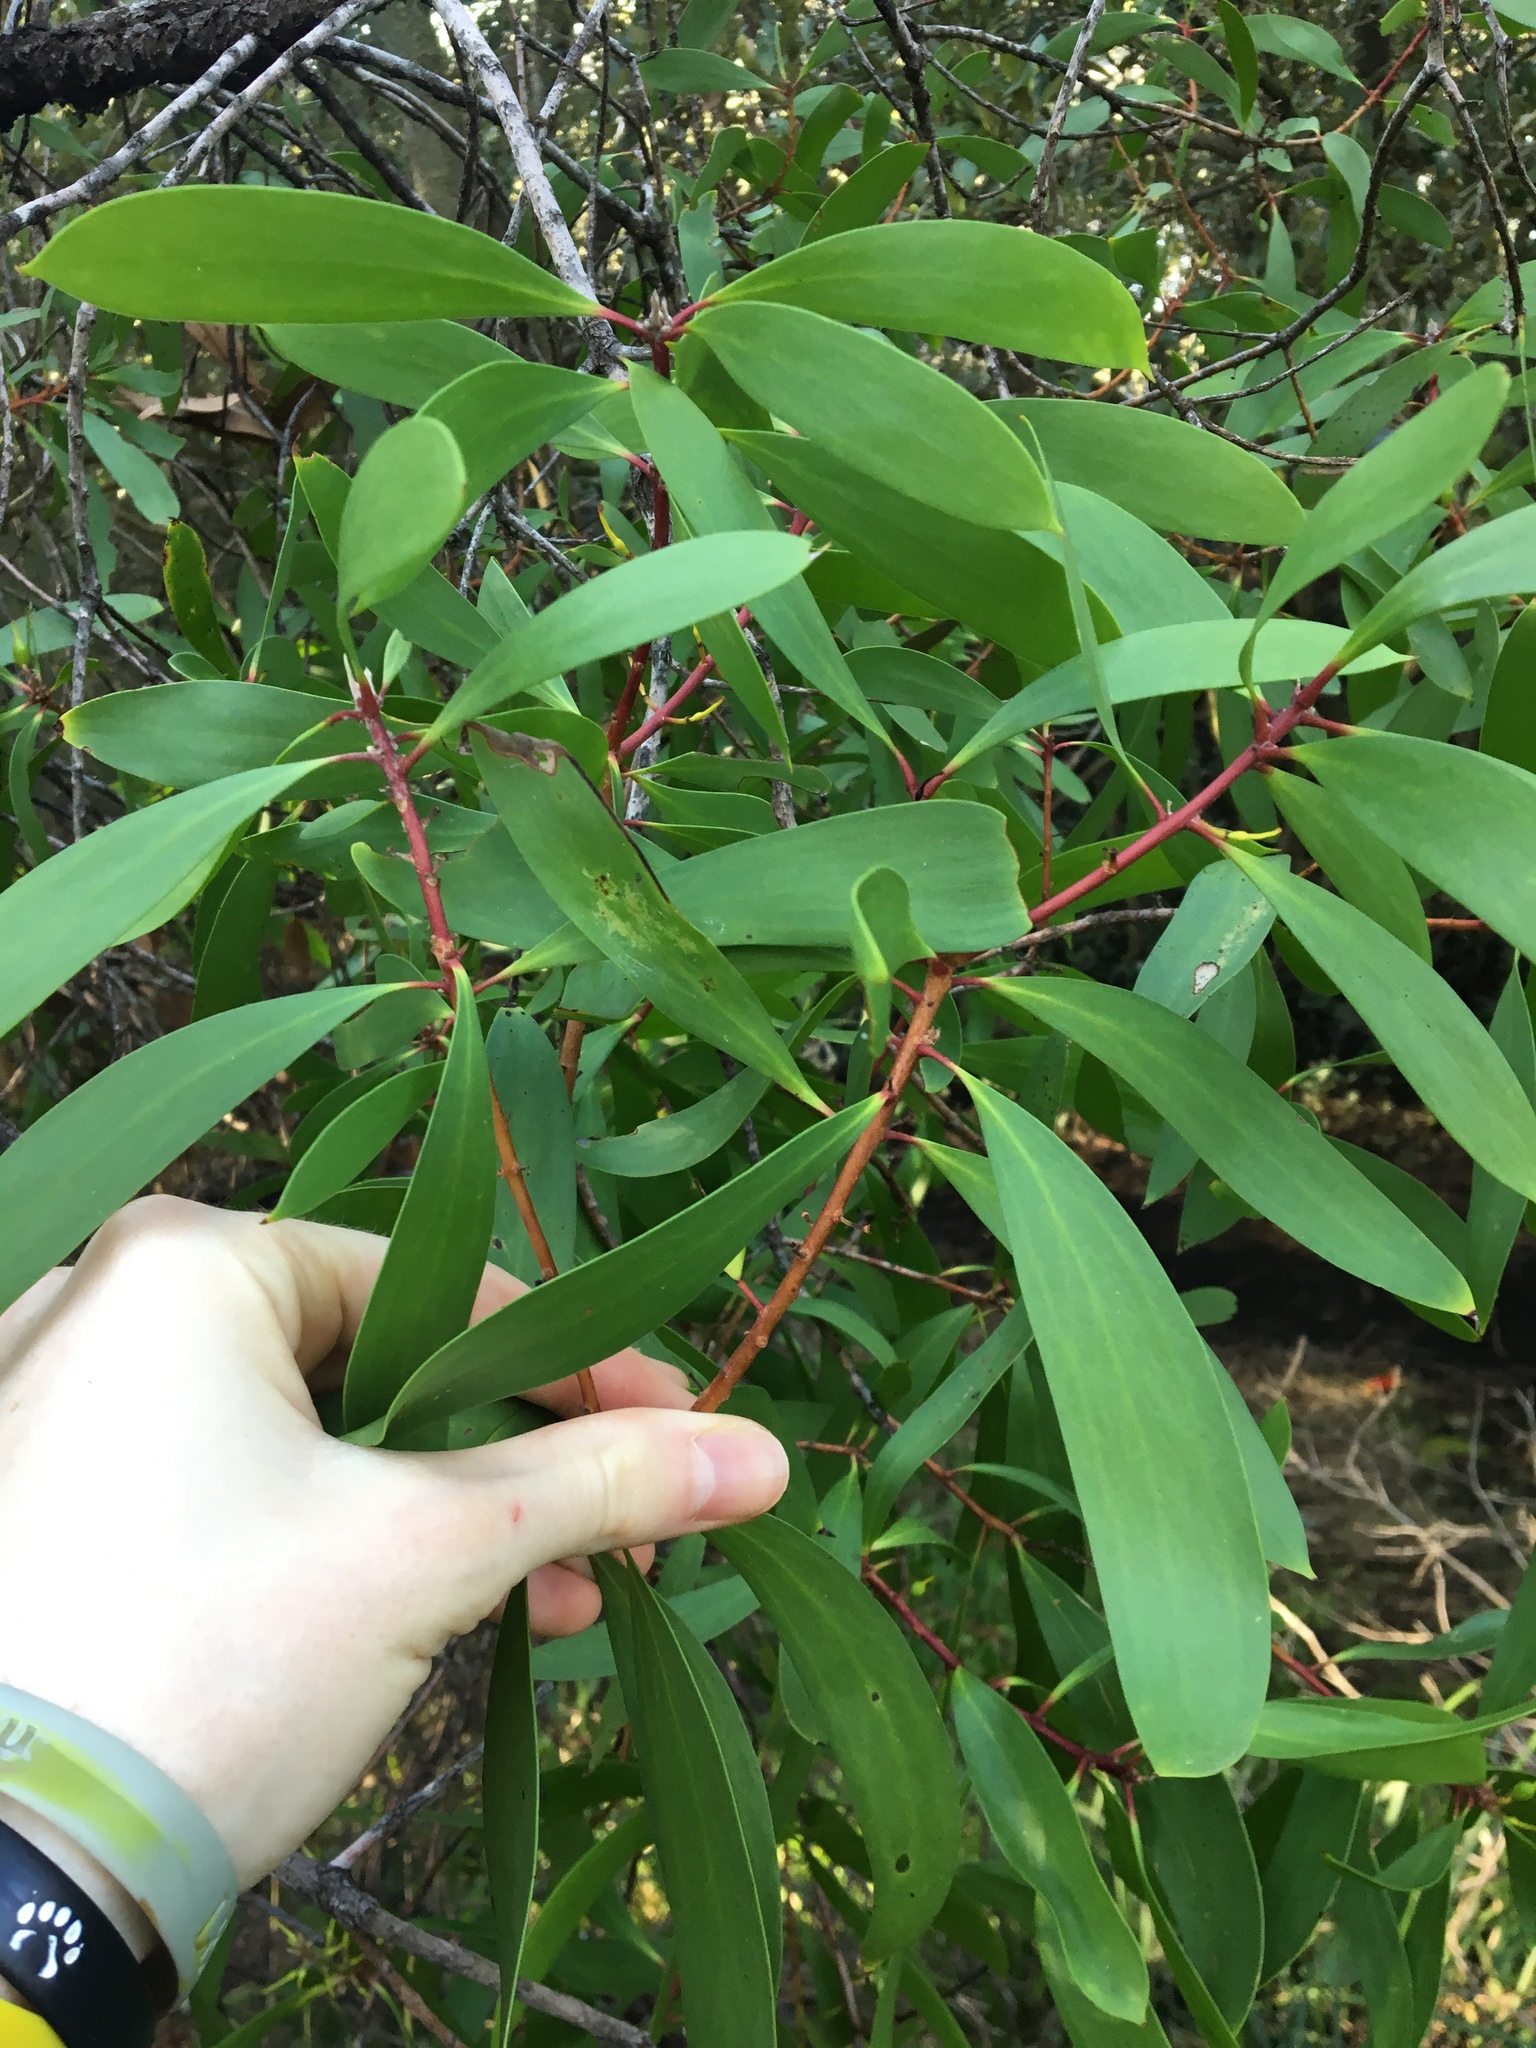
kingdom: Plantae
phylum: Tracheophyta
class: Magnoliopsida
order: Proteales
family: Proteaceae
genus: Persoonia
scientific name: Persoonia levis
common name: Smooth geebung
